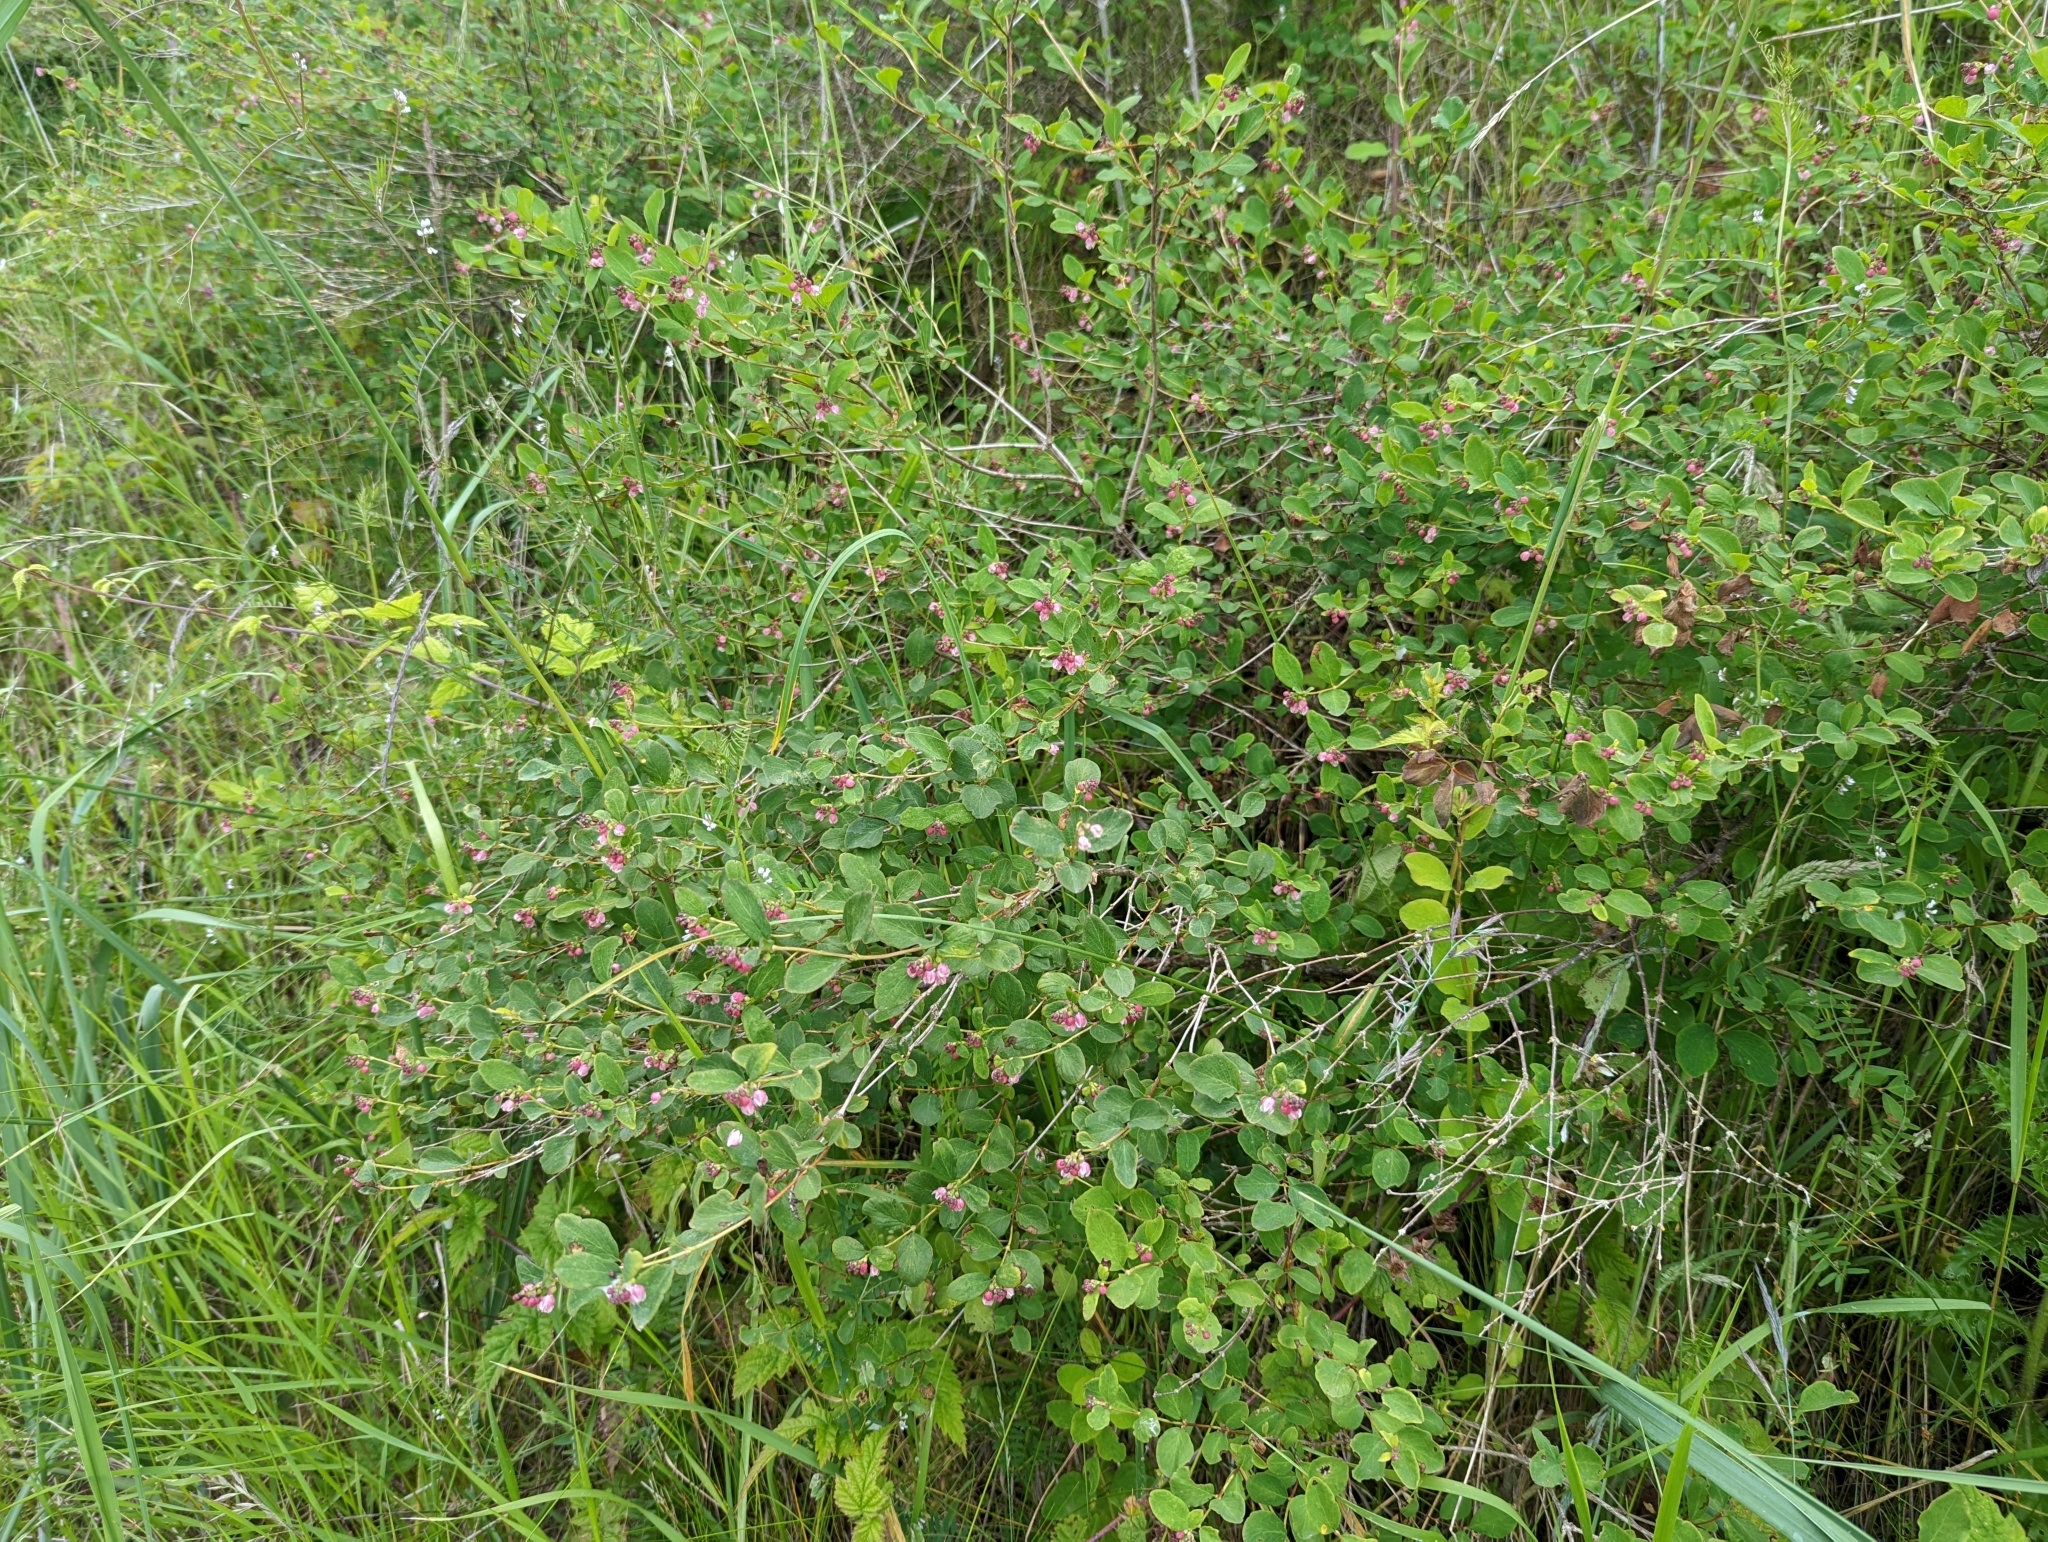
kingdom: Plantae
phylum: Tracheophyta
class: Magnoliopsida
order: Dipsacales
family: Caprifoliaceae
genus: Symphoricarpos
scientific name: Symphoricarpos albus
